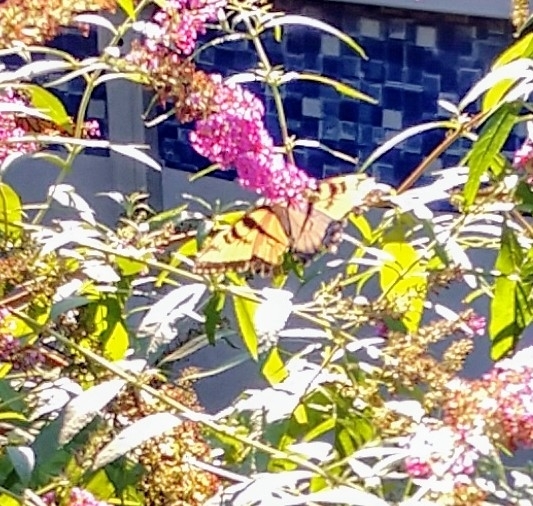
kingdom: Animalia
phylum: Arthropoda
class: Insecta
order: Lepidoptera
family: Papilionidae
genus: Papilio
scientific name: Papilio glaucus
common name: Tiger swallowtail
